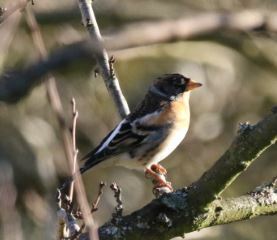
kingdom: Animalia
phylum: Chordata
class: Aves
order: Passeriformes
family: Fringillidae
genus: Fringilla
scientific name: Fringilla montifringilla
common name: Brambling
